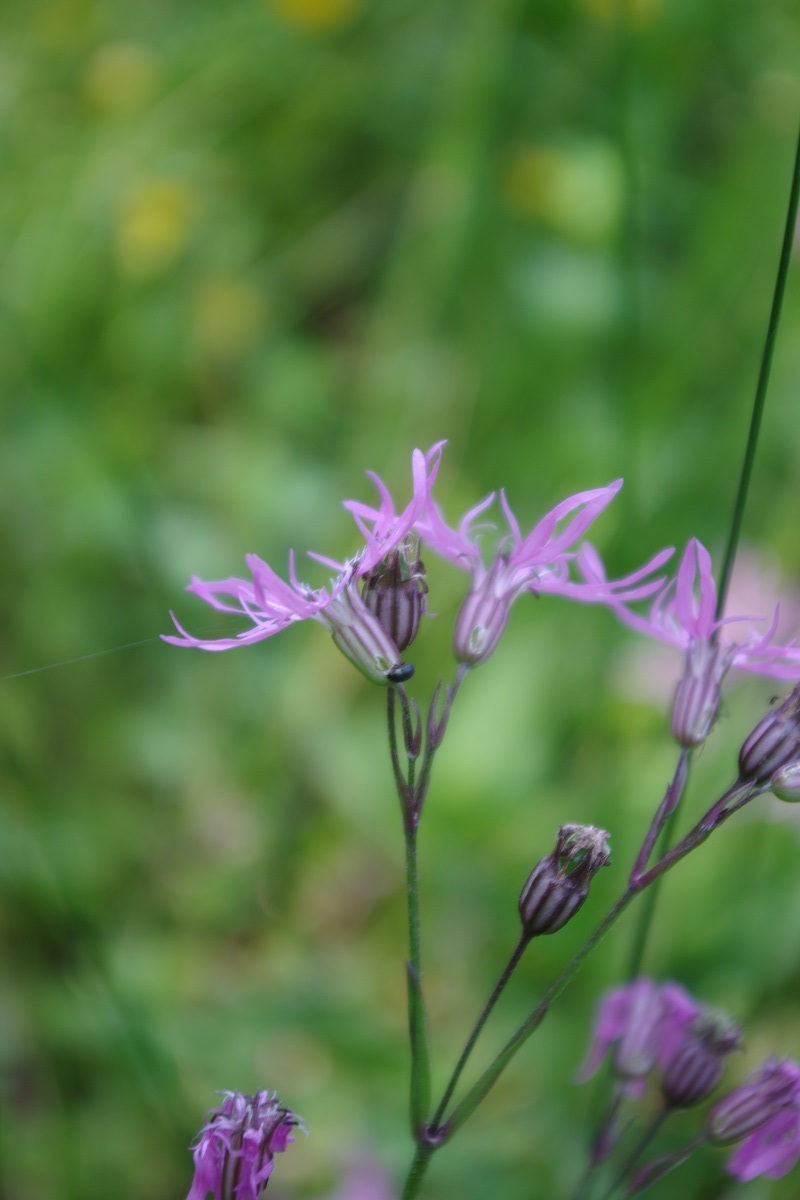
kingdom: Plantae
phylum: Tracheophyta
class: Magnoliopsida
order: Caryophyllales
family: Caryophyllaceae
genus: Silene
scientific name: Silene flos-cuculi
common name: Ragged-robin
